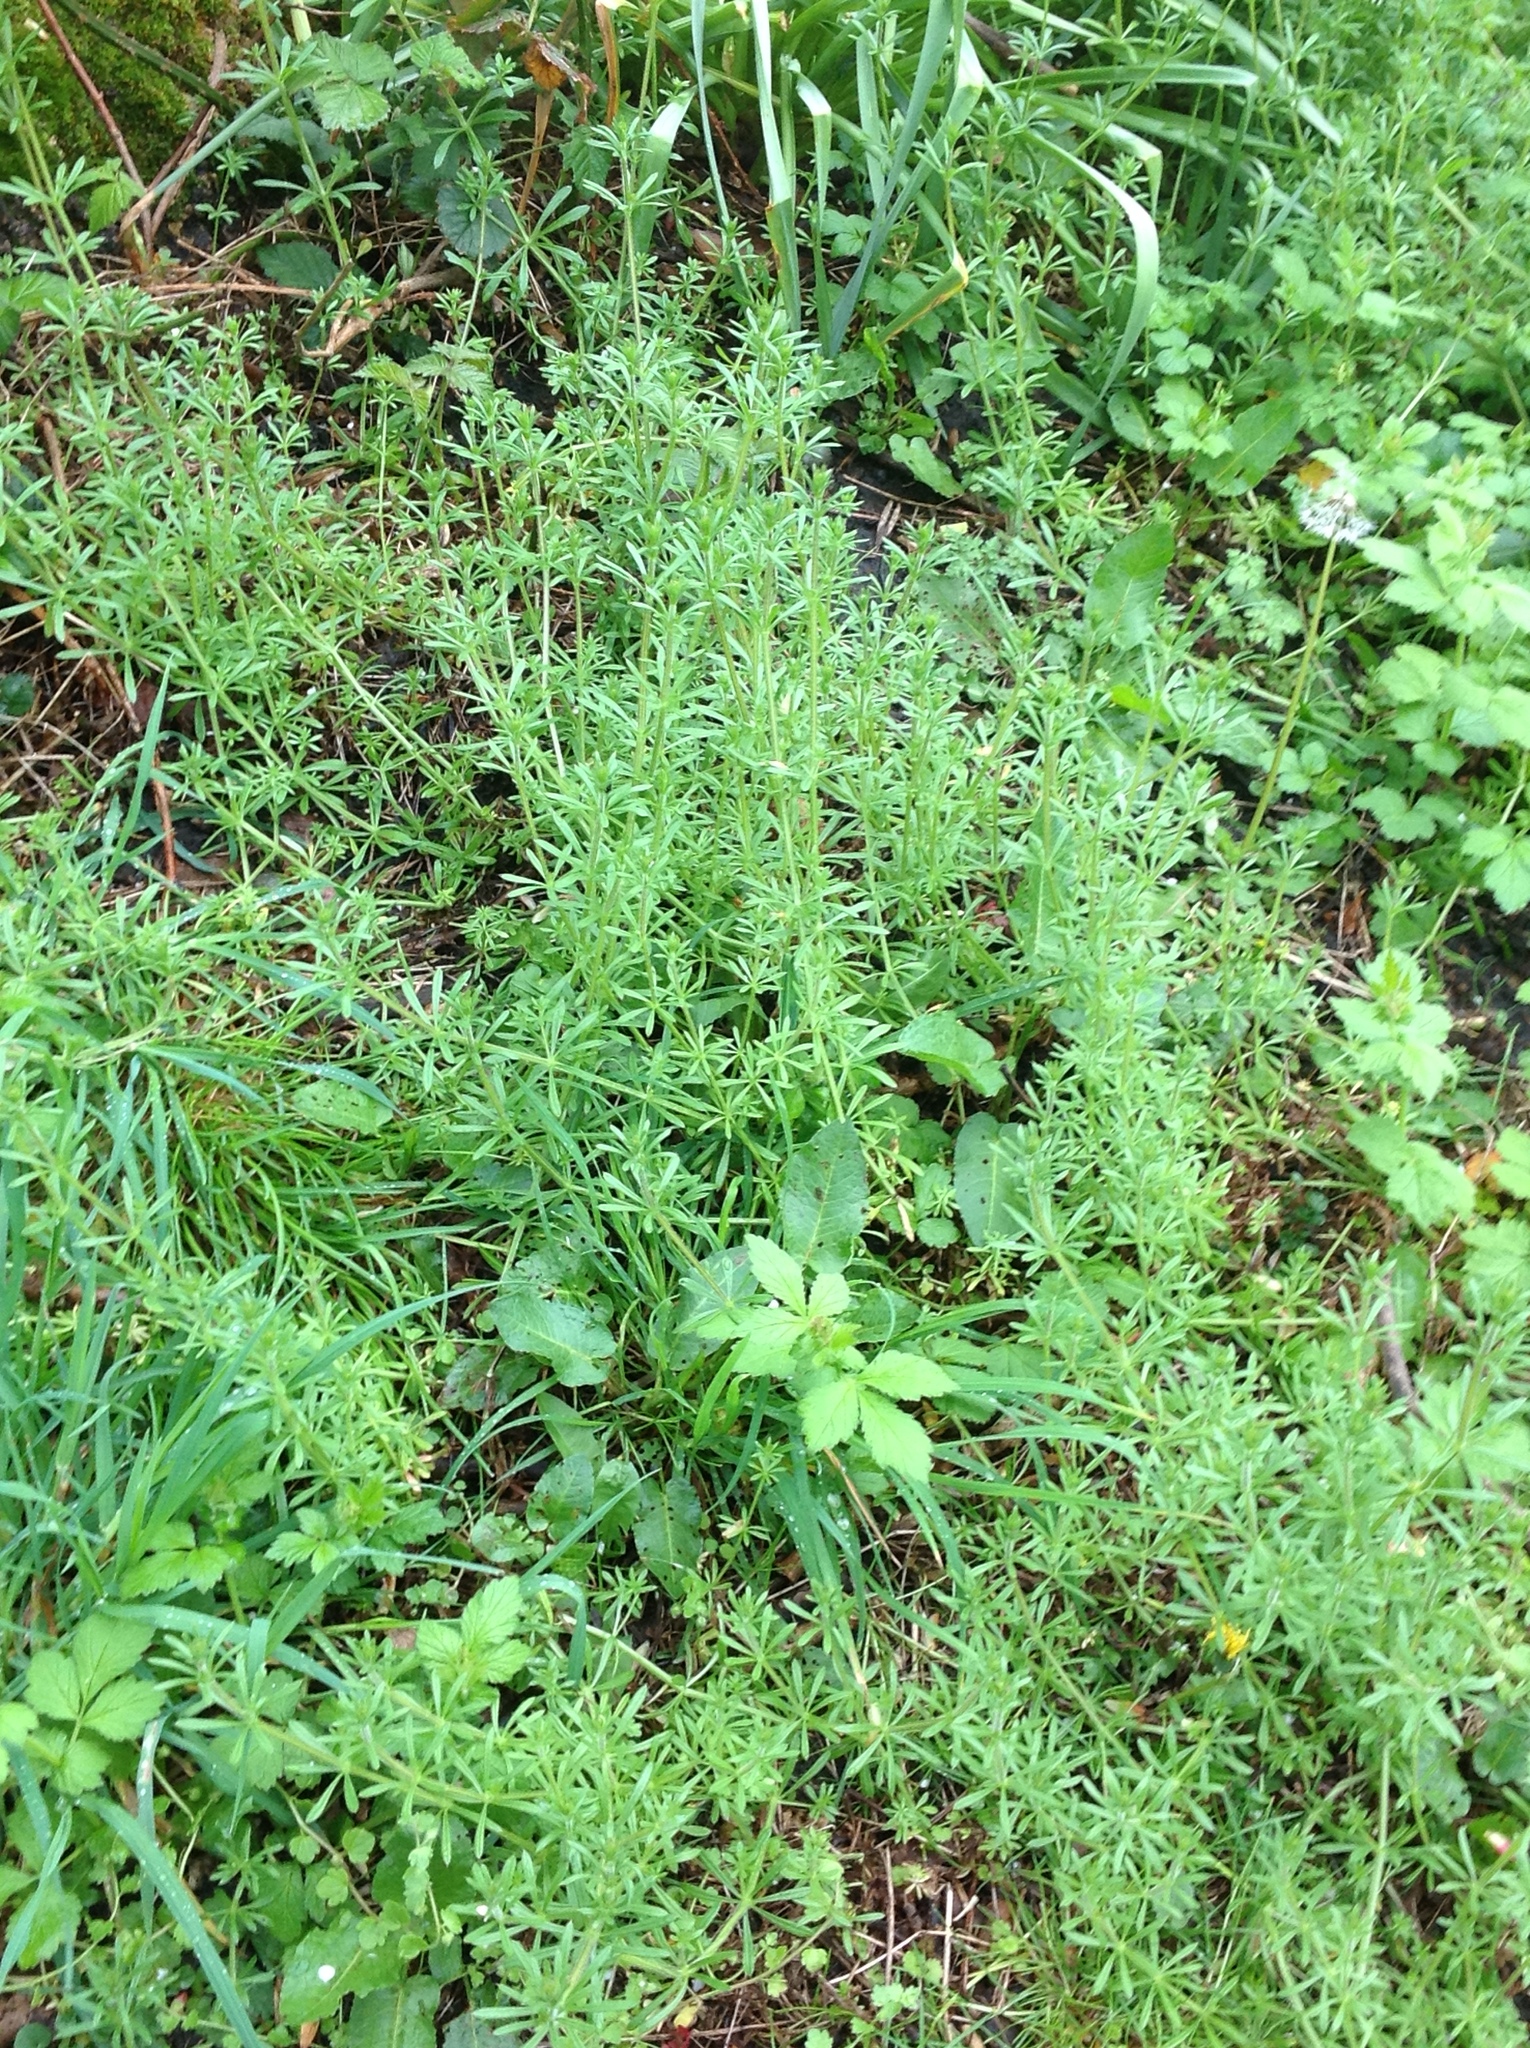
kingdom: Plantae
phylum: Tracheophyta
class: Magnoliopsida
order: Gentianales
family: Rubiaceae
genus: Galium
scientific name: Galium aparine
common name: Cleavers
